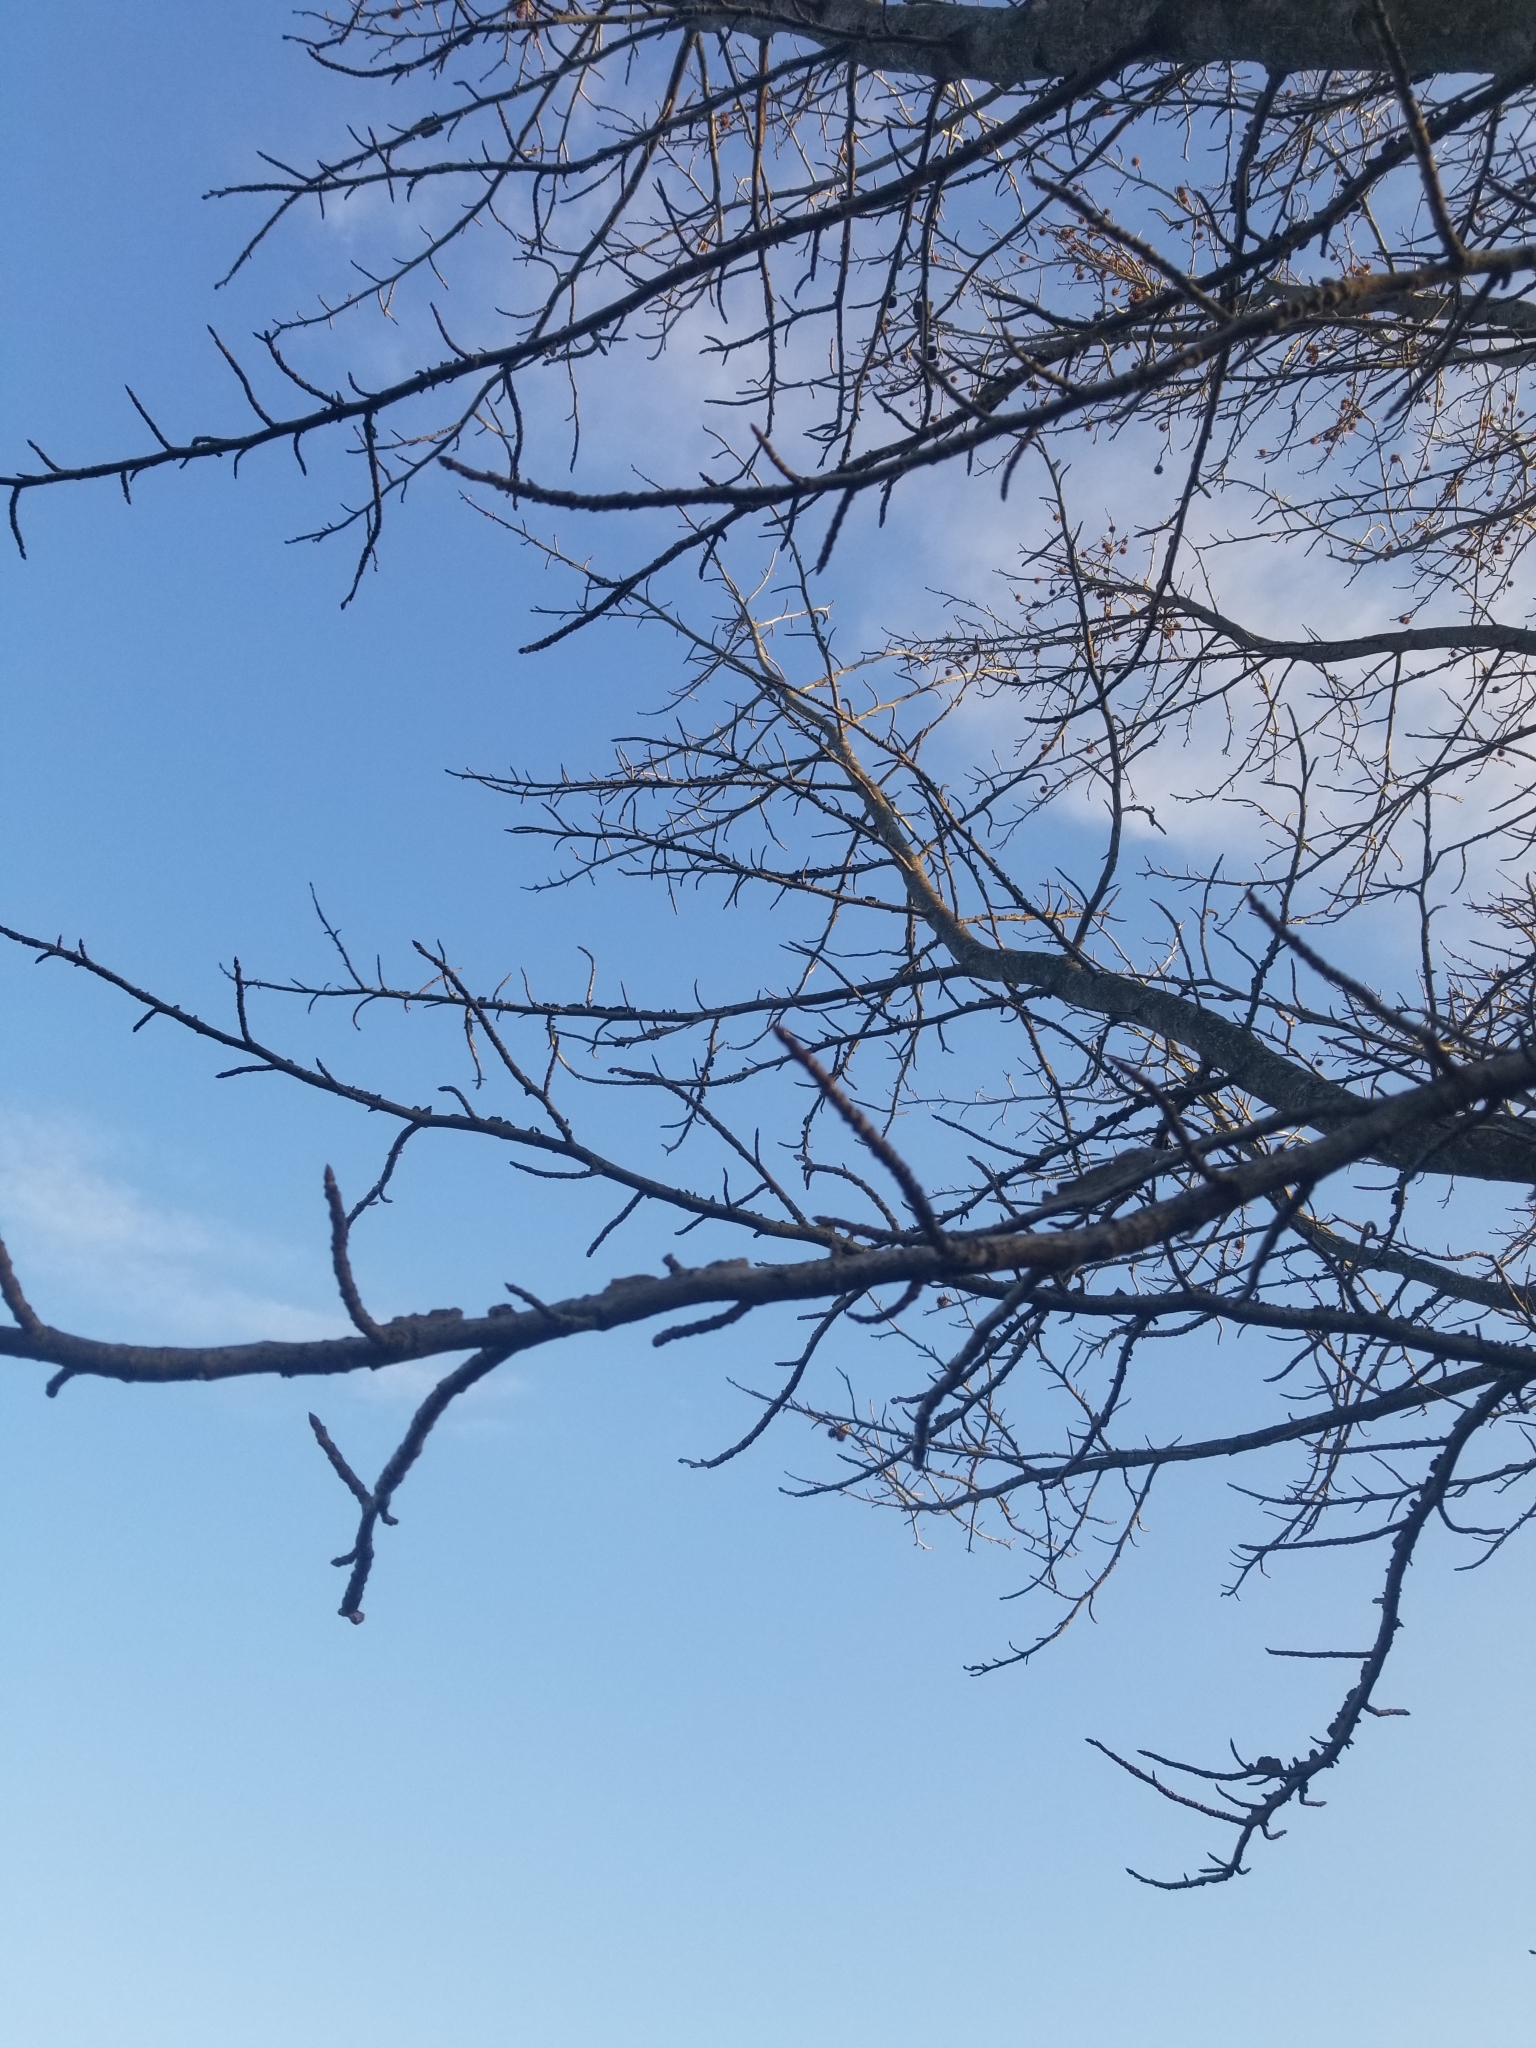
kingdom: Plantae
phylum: Tracheophyta
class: Magnoliopsida
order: Saxifragales
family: Altingiaceae
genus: Liquidambar
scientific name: Liquidambar styraciflua
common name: Sweet gum
